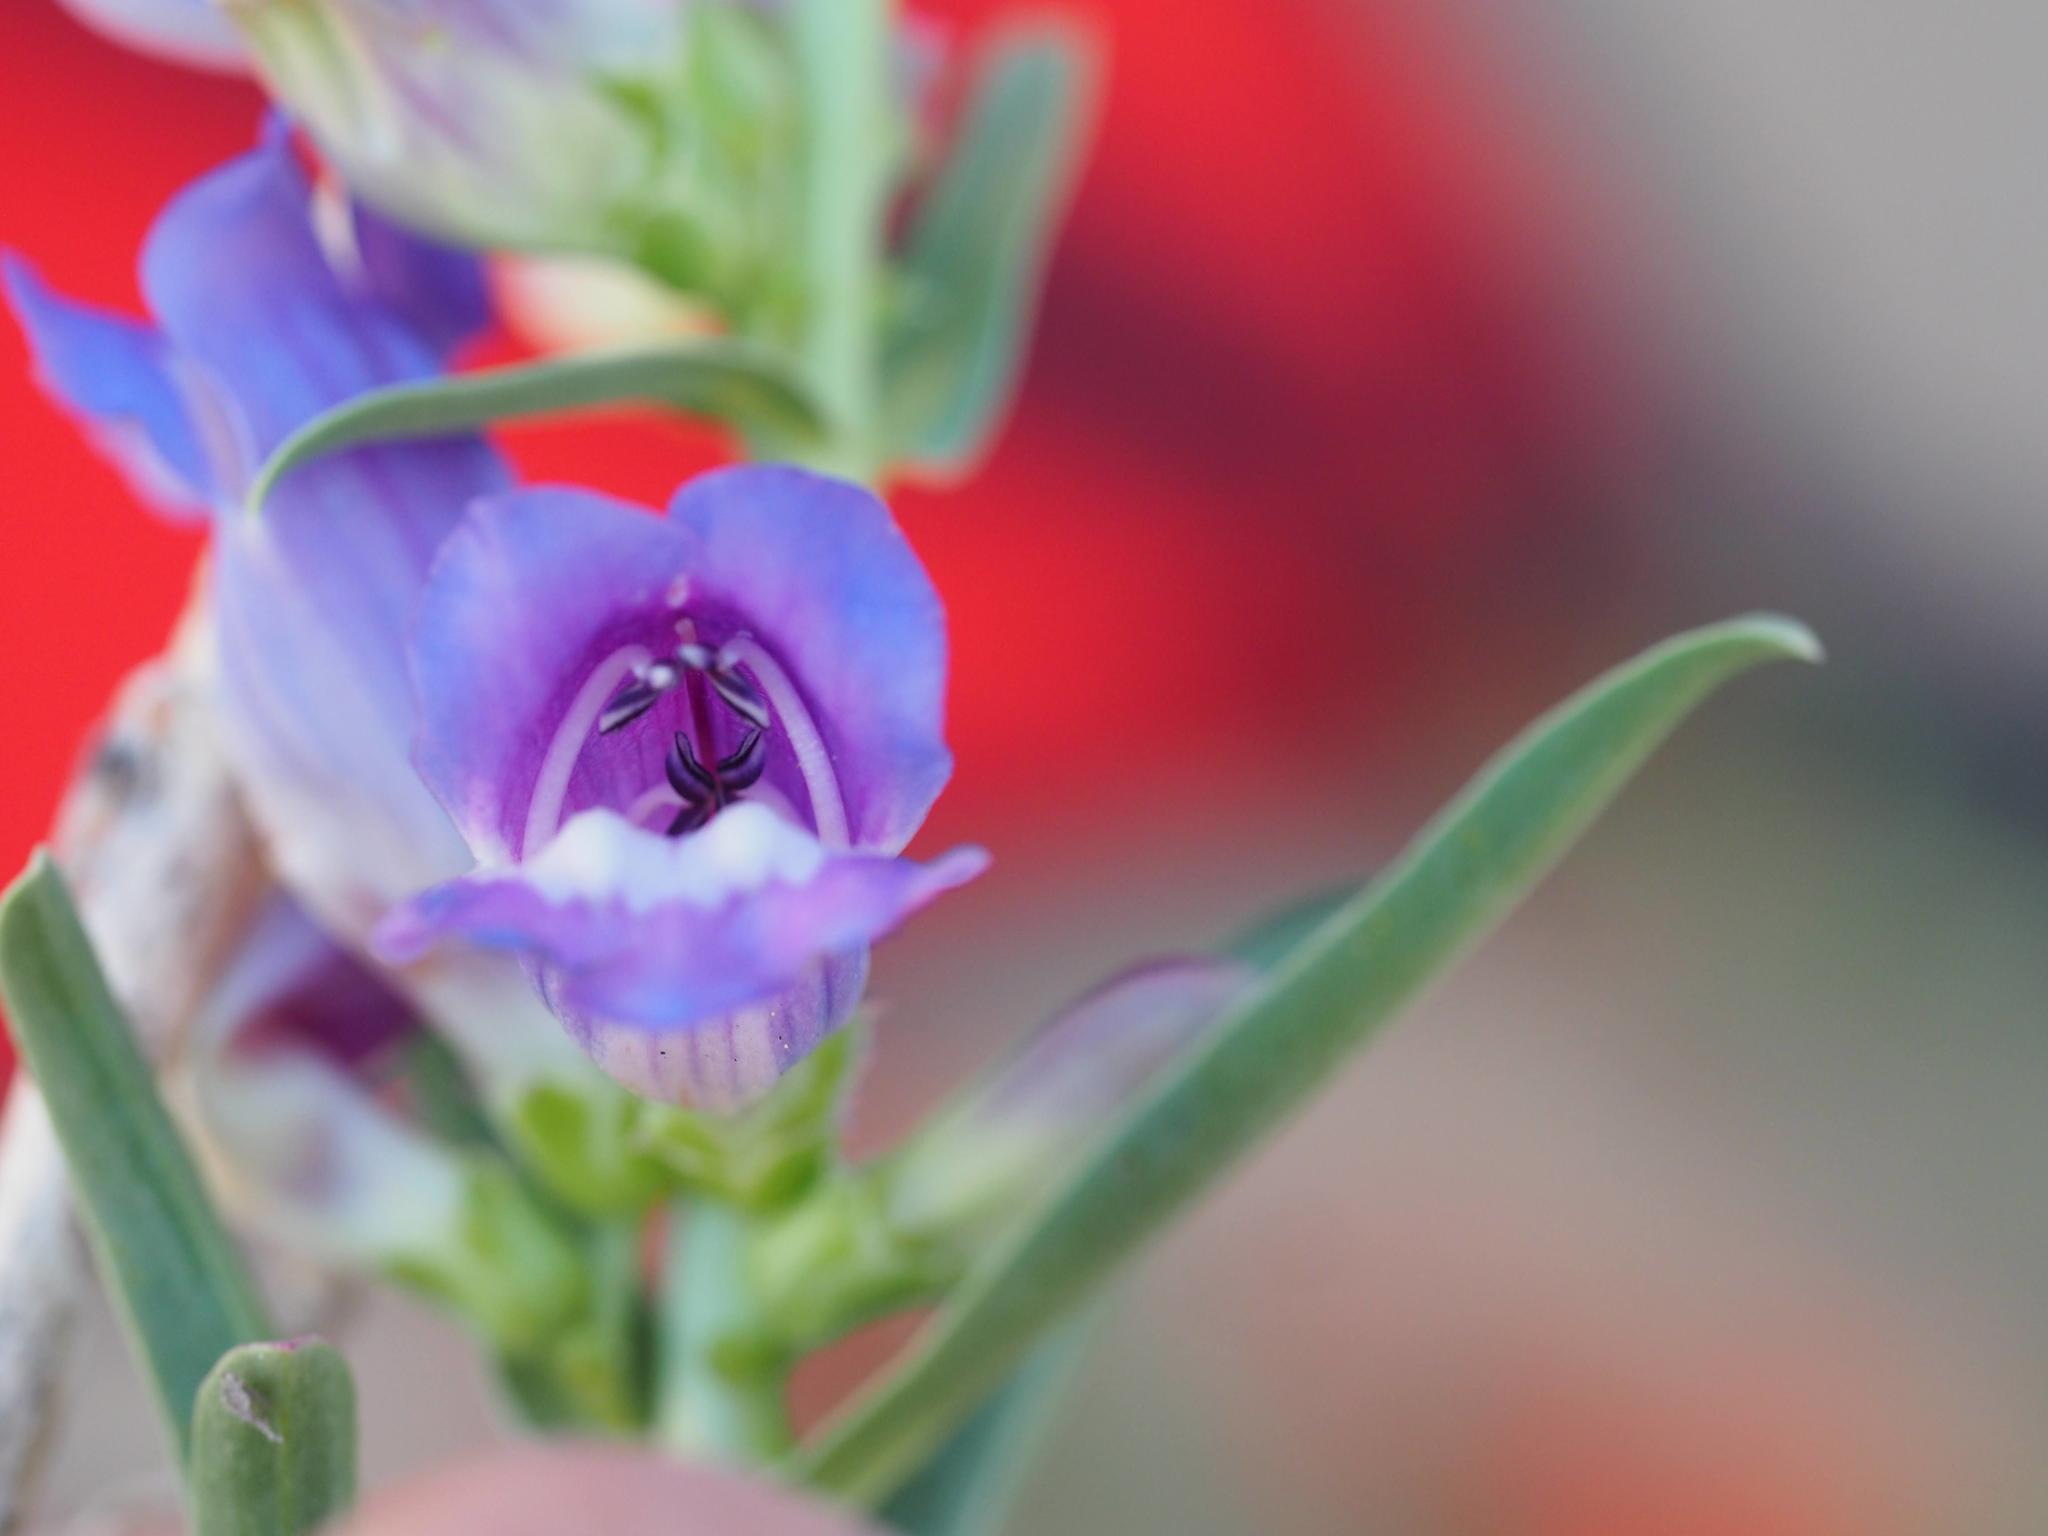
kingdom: Plantae
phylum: Tracheophyta
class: Magnoliopsida
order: Lamiales
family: Plantaginaceae
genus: Penstemon
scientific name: Penstemon speciosus
